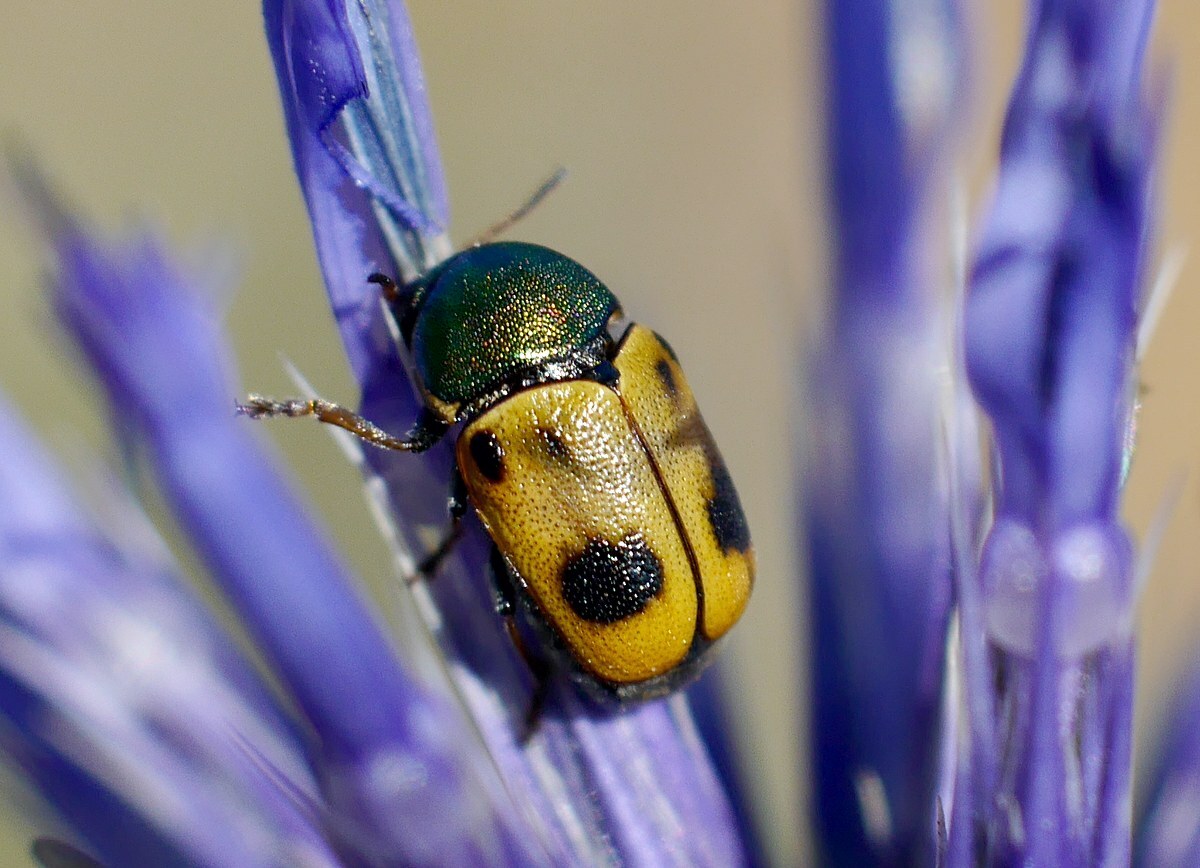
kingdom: Animalia
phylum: Arthropoda
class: Insecta
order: Coleoptera
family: Chrysomelidae
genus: Cryptocephalus
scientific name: Cryptocephalus laetus
